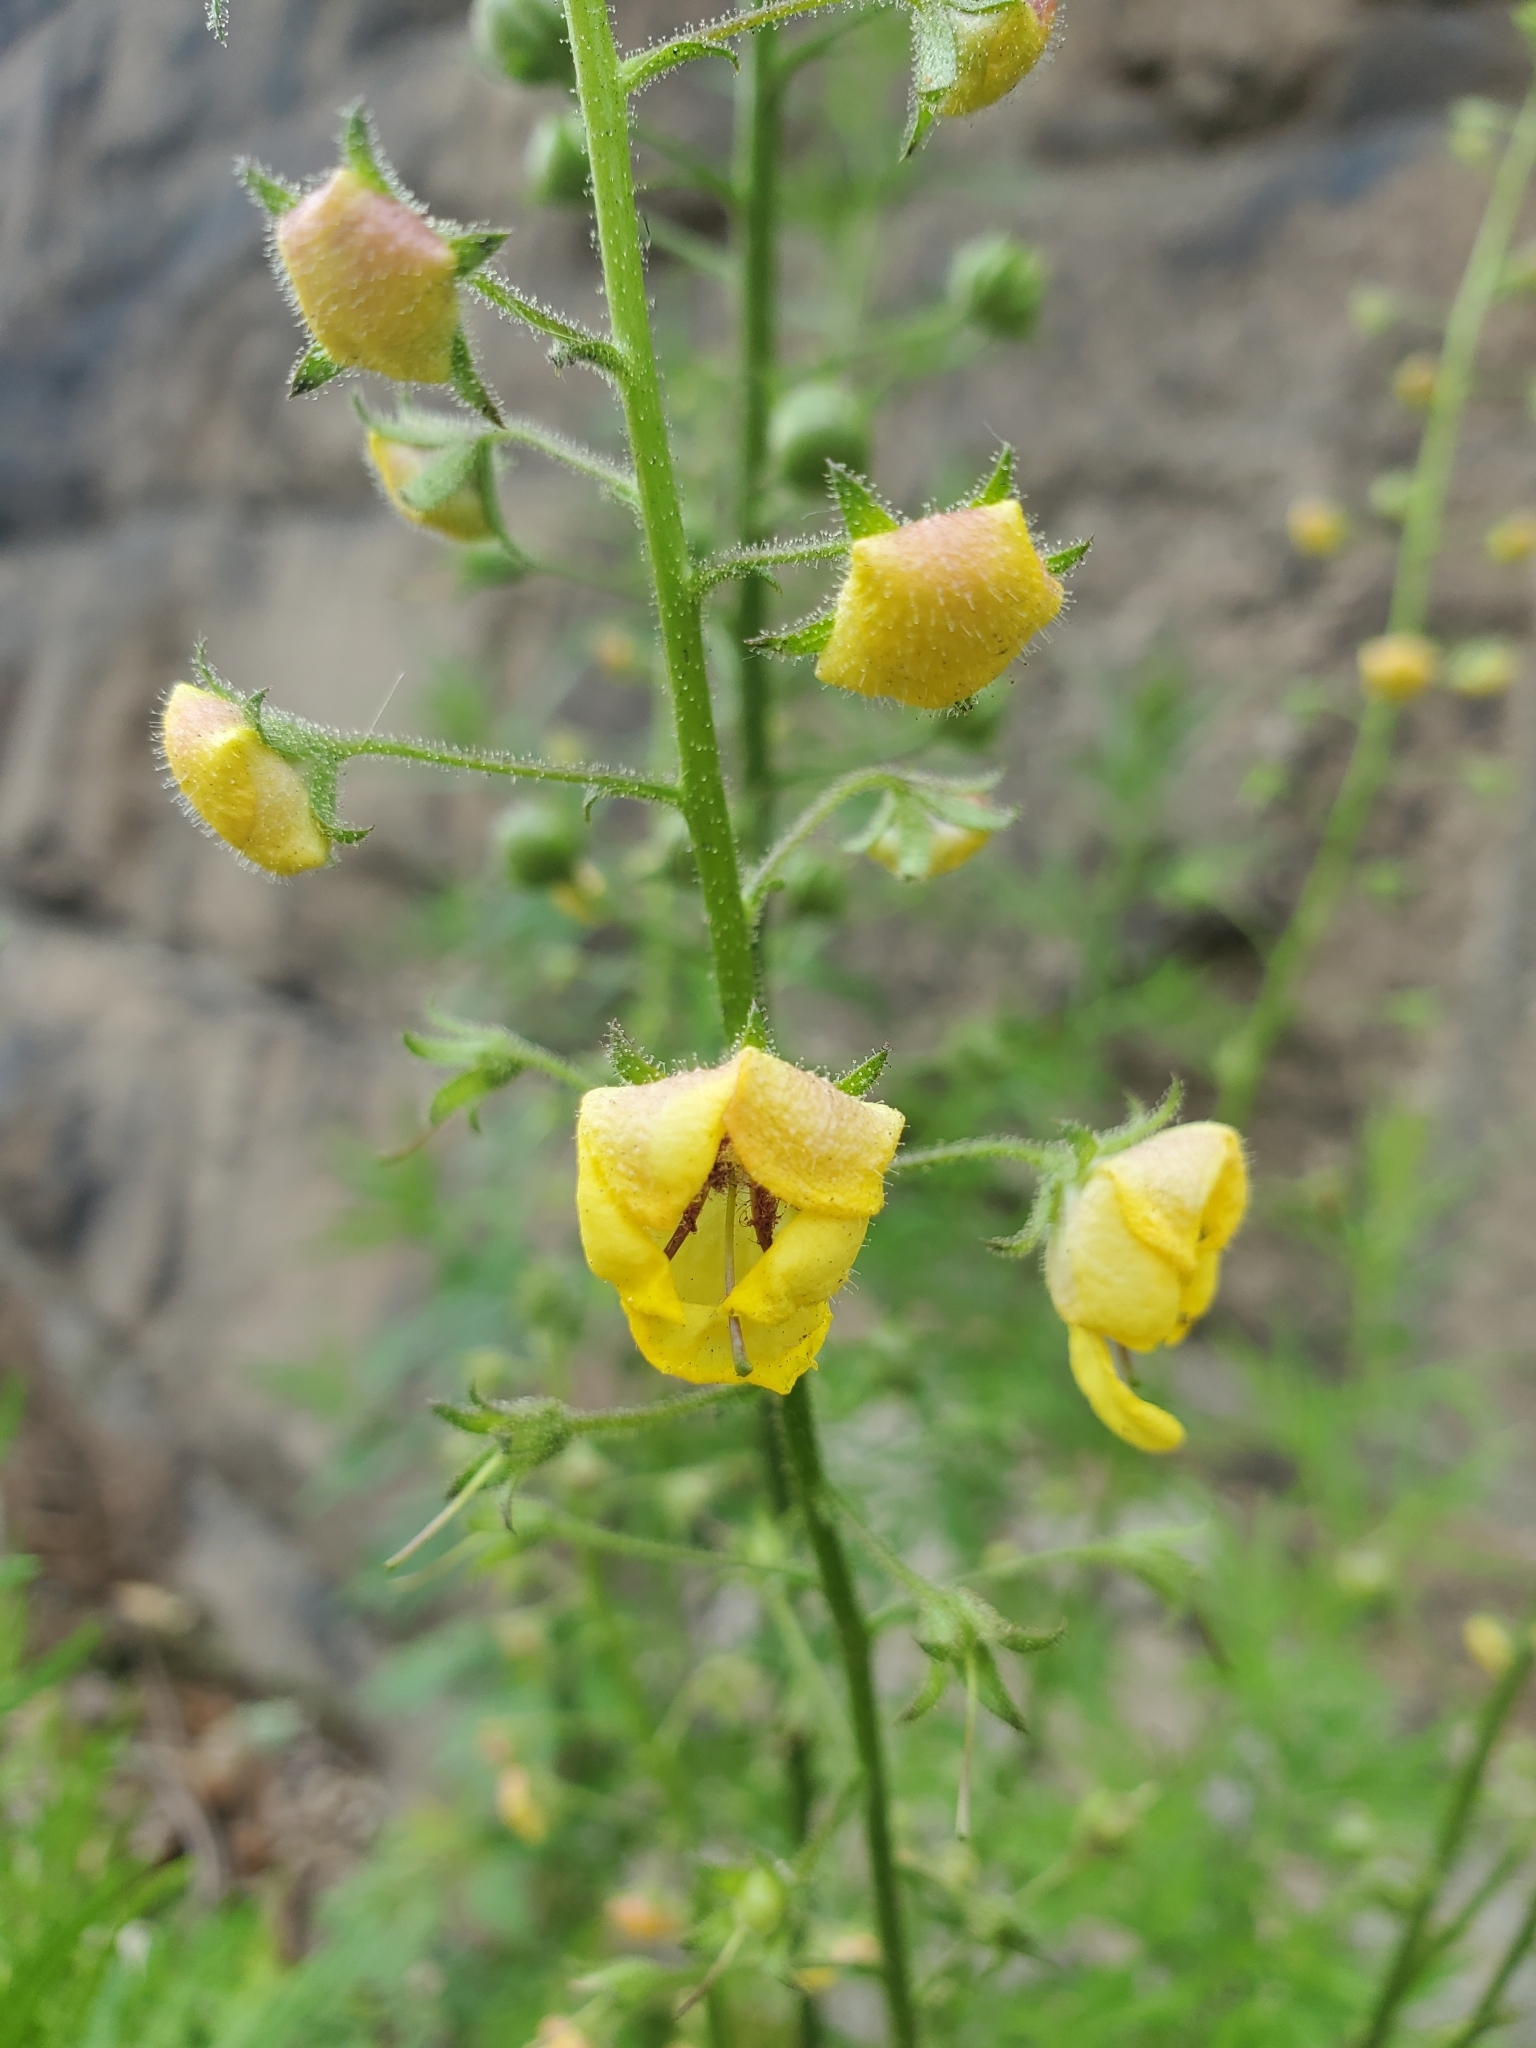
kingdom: Plantae
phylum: Tracheophyta
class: Magnoliopsida
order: Lamiales
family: Scrophulariaceae
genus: Verbascum
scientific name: Verbascum blattaria
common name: Moth mullein
